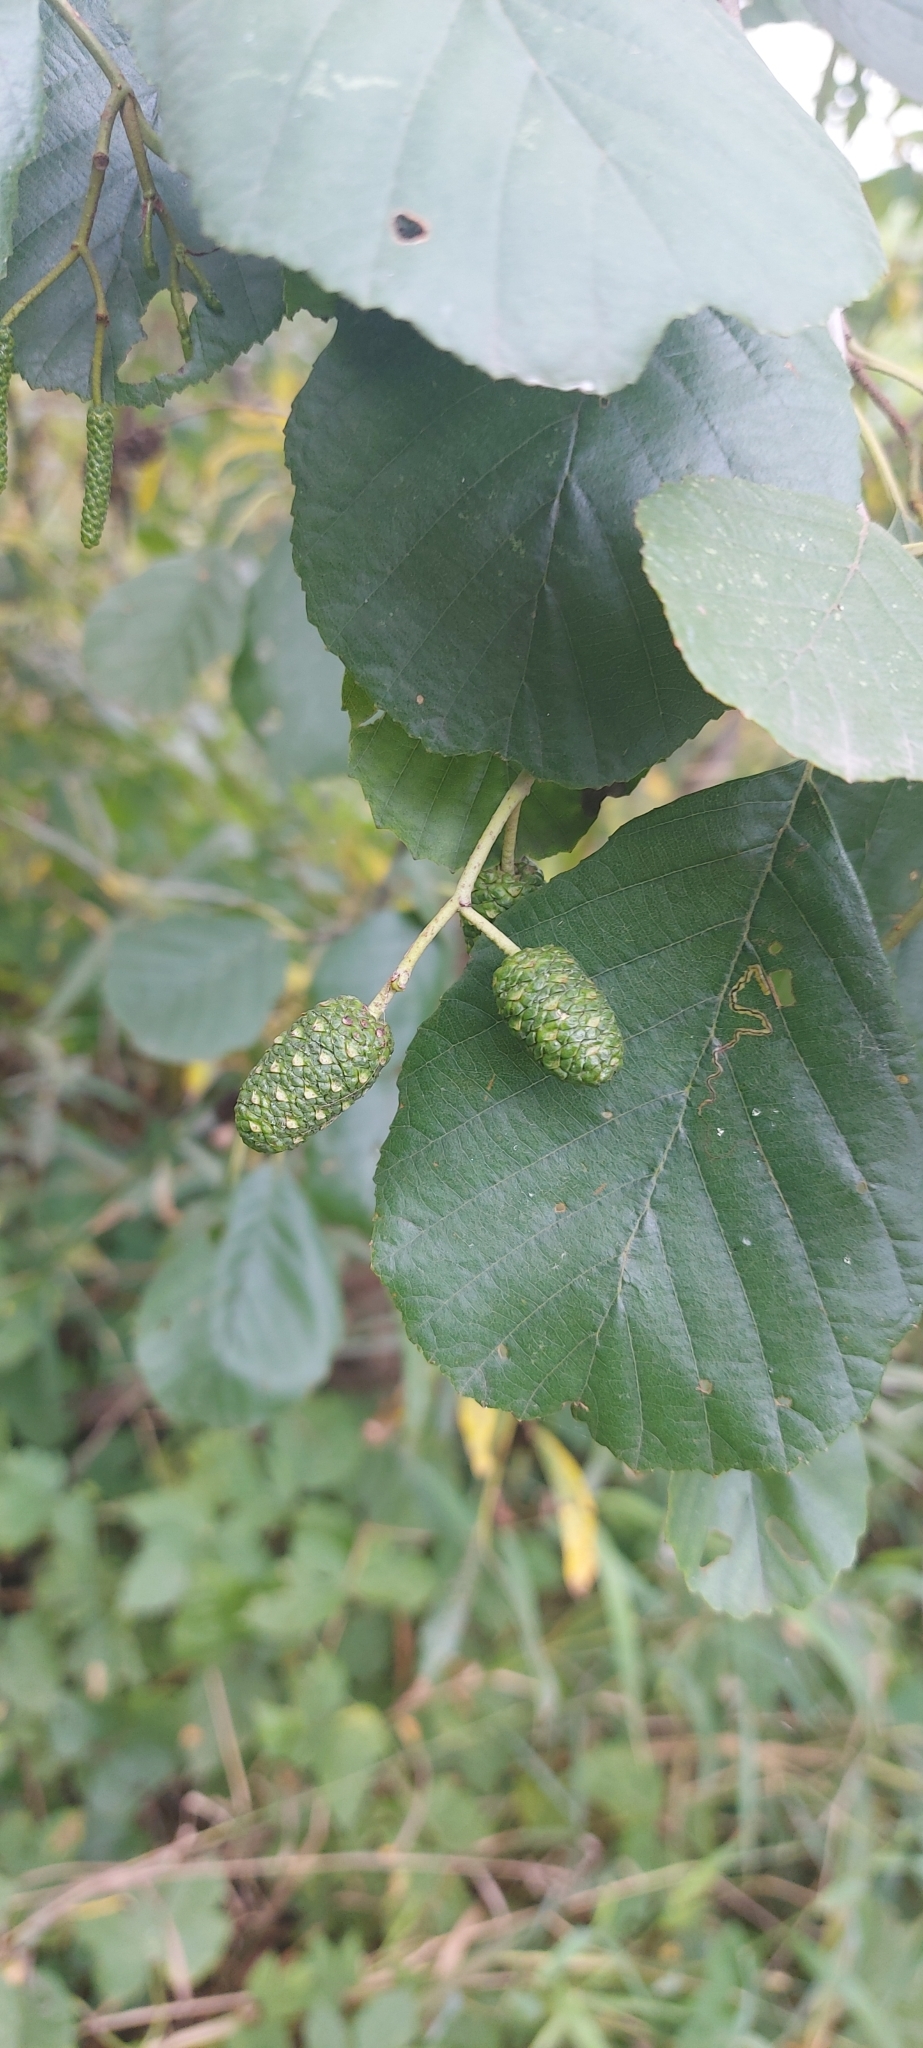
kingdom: Plantae
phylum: Tracheophyta
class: Magnoliopsida
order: Fagales
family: Betulaceae
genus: Alnus
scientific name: Alnus glutinosa
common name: Black alder
